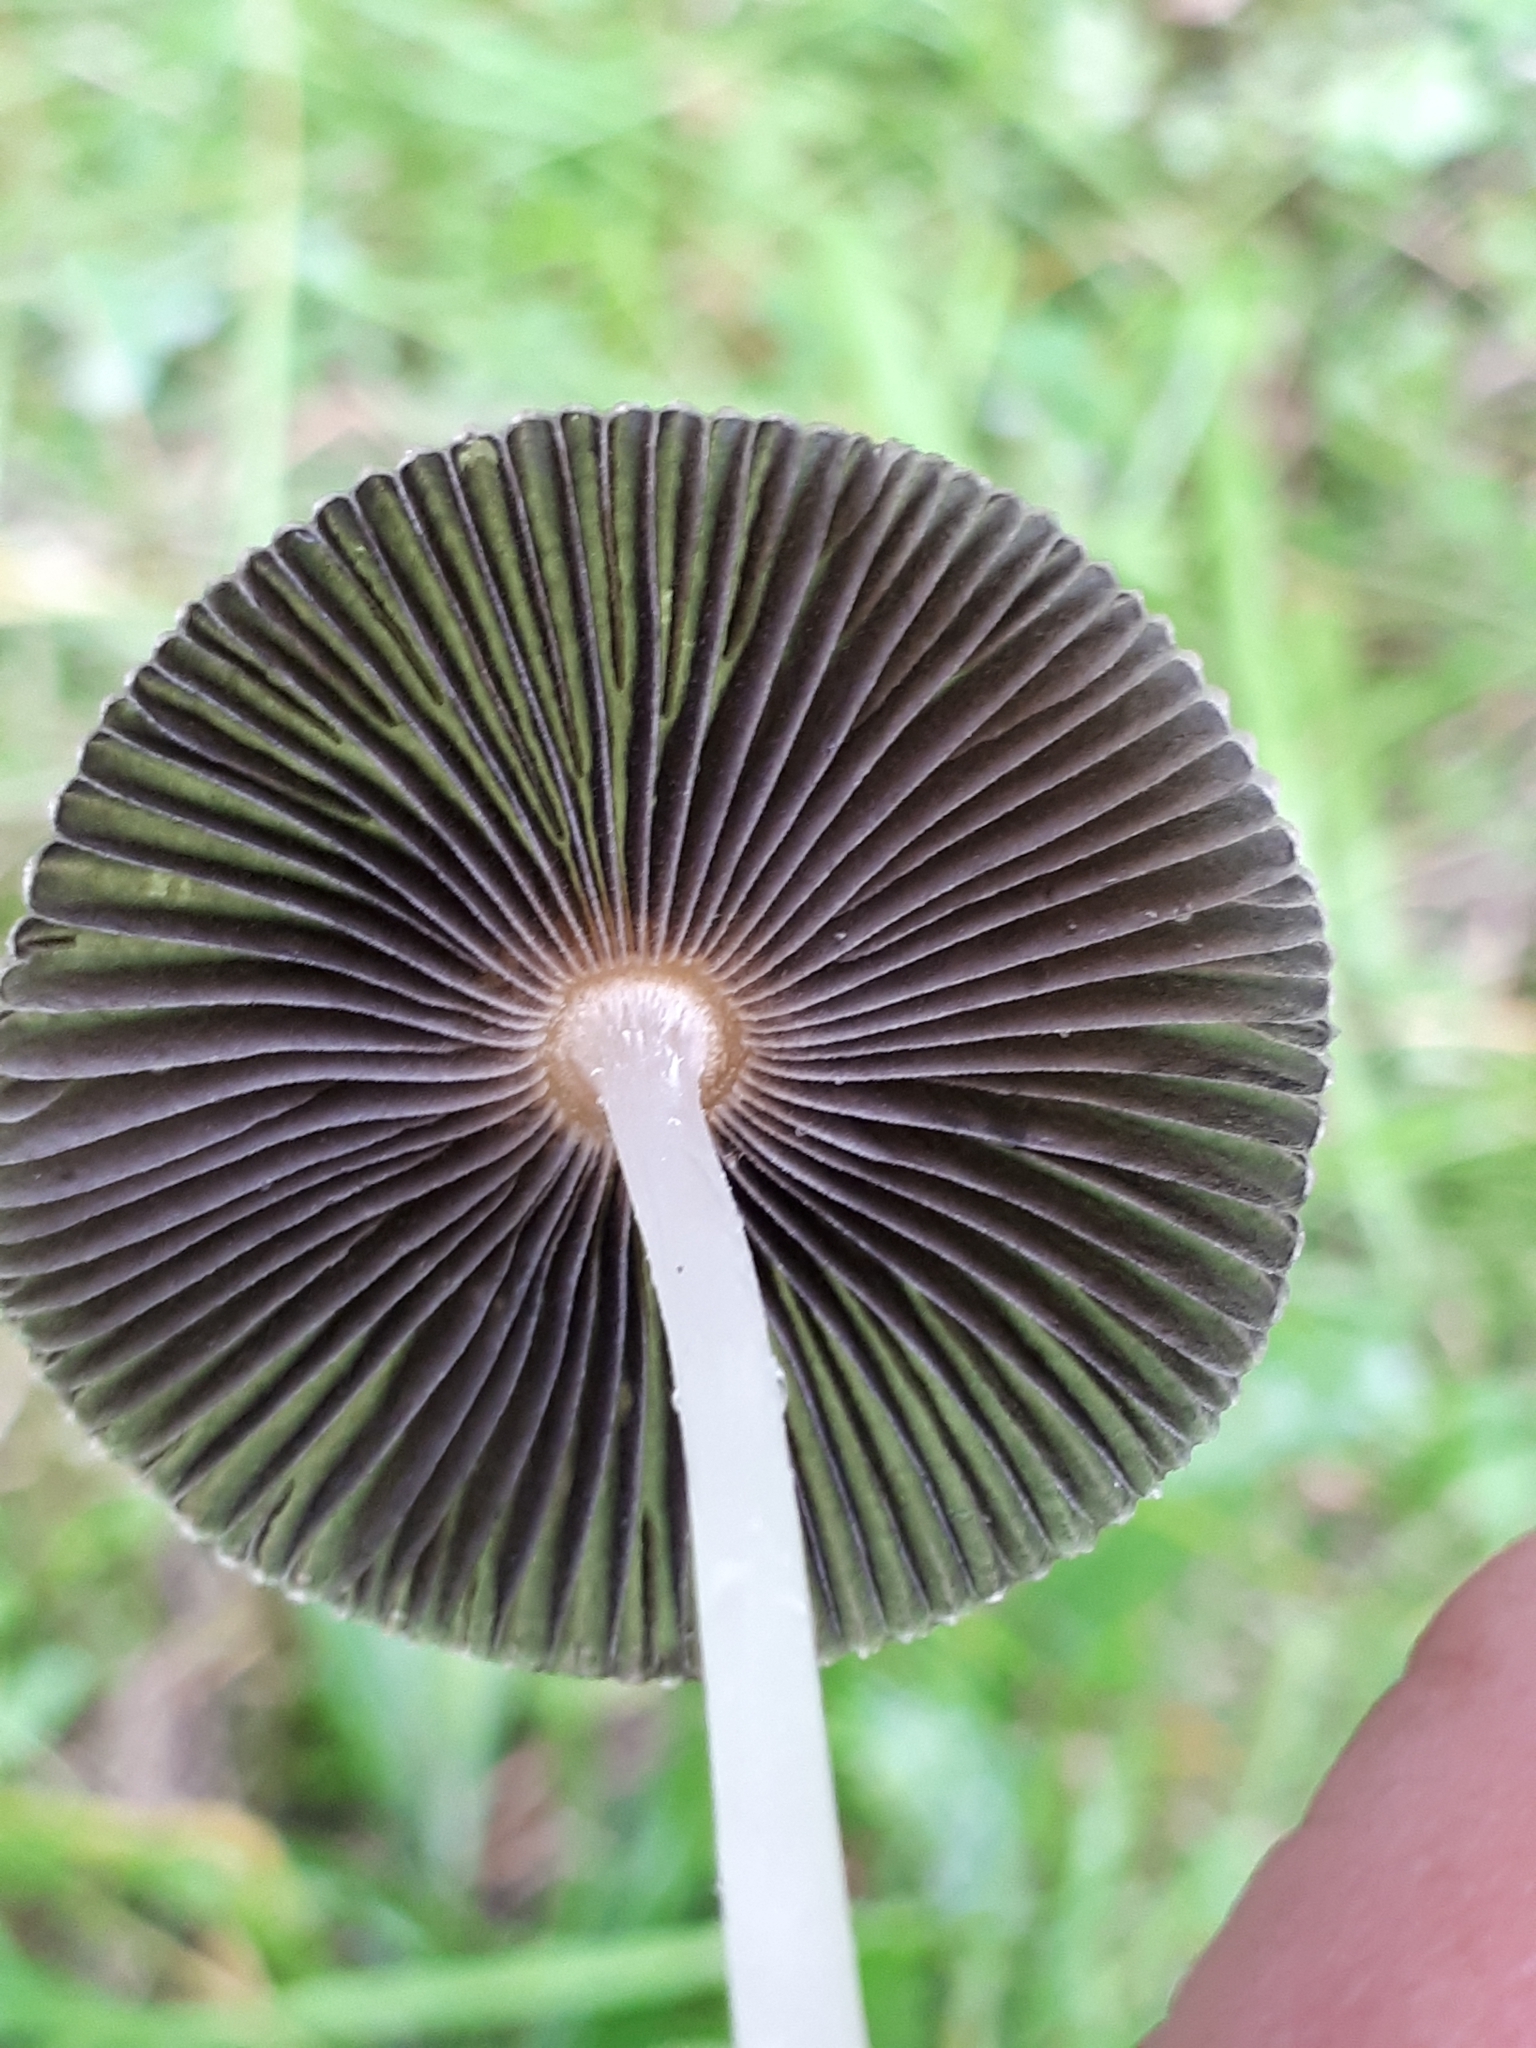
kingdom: Fungi
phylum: Basidiomycota
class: Agaricomycetes
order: Agaricales
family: Psathyrellaceae
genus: Parasola
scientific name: Parasola plicatilis
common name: Pleated inkcap
